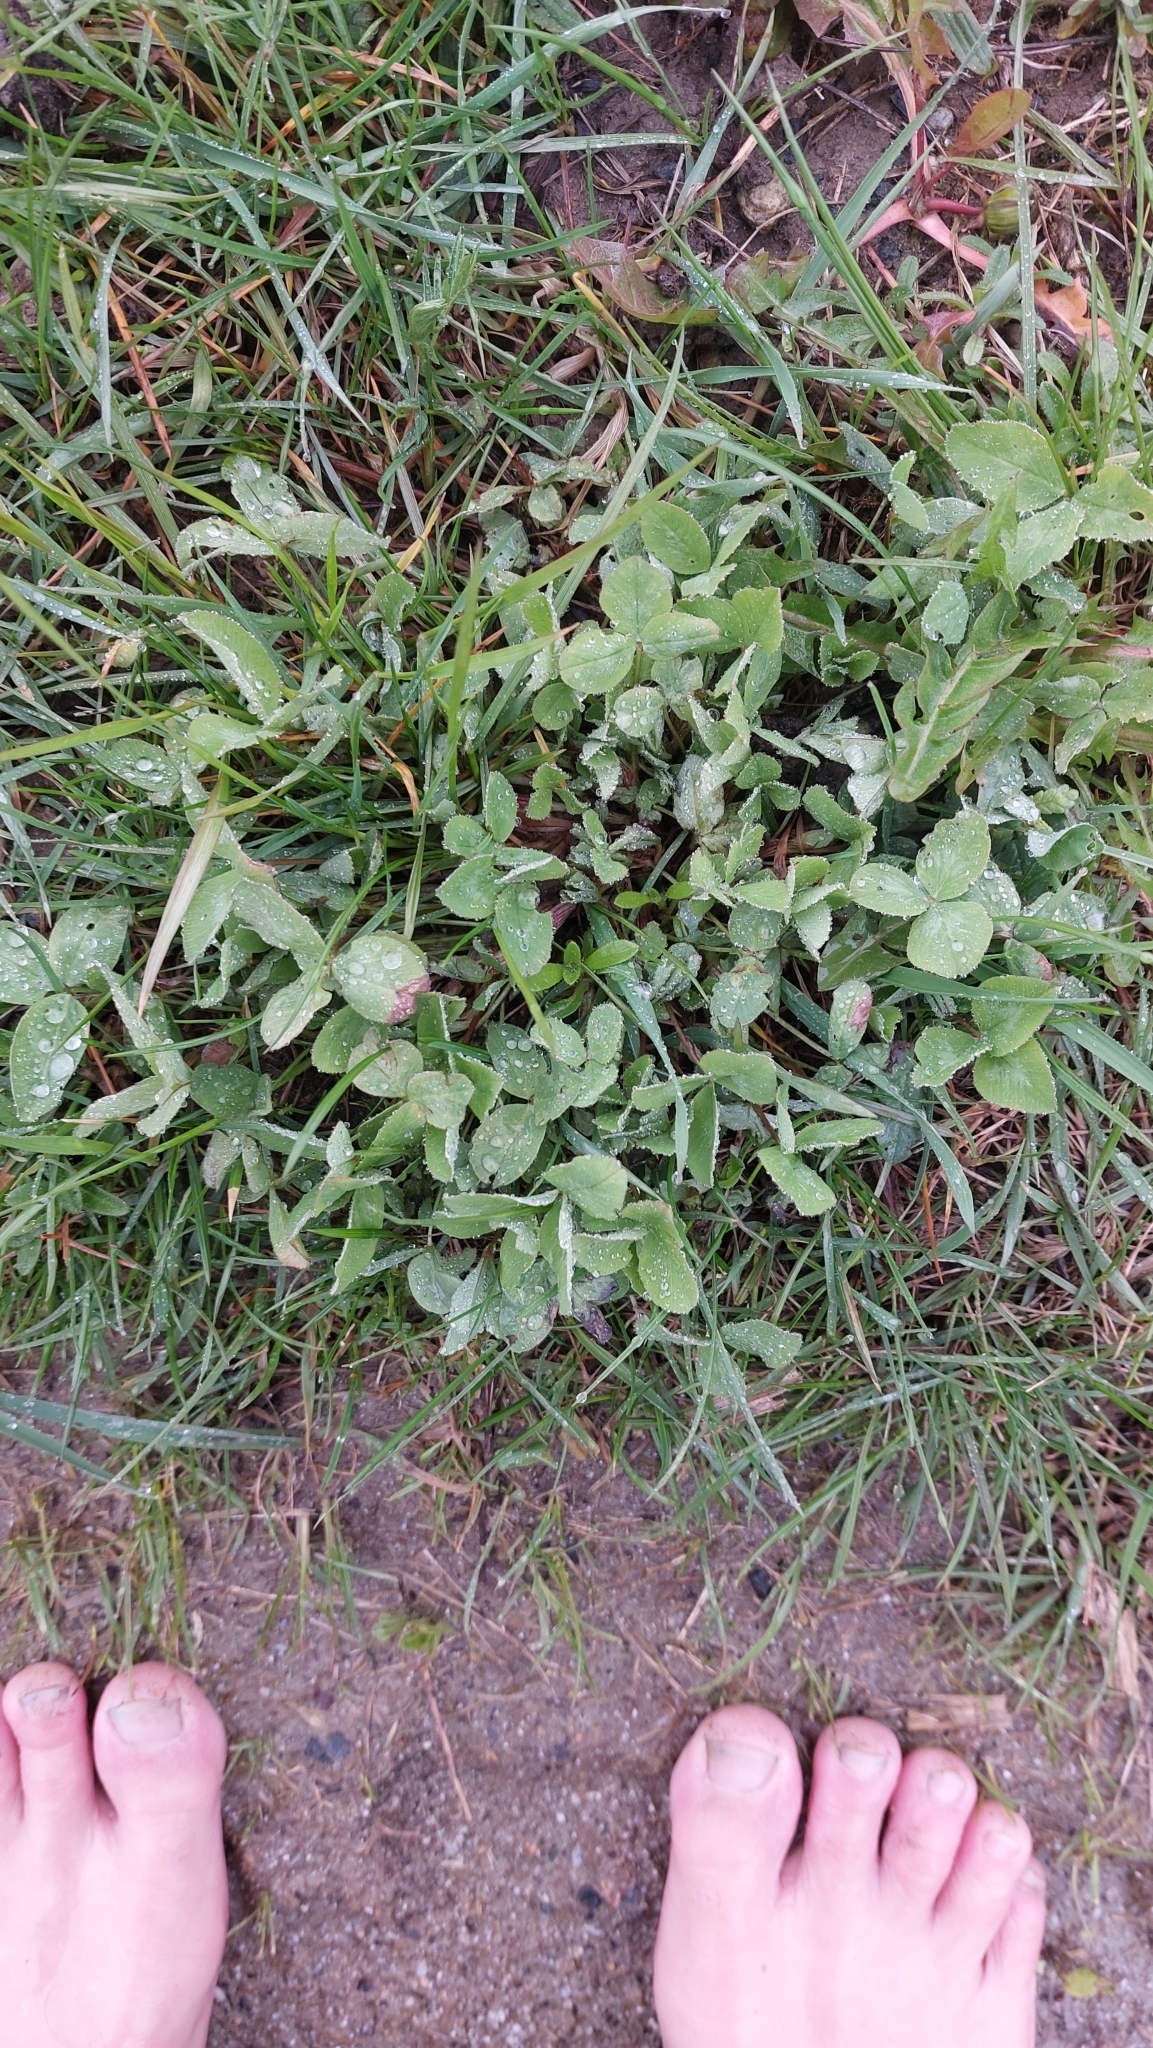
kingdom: Plantae
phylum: Tracheophyta
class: Magnoliopsida
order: Fabales
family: Fabaceae
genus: Trifolium
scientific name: Trifolium pratense
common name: Red clover
